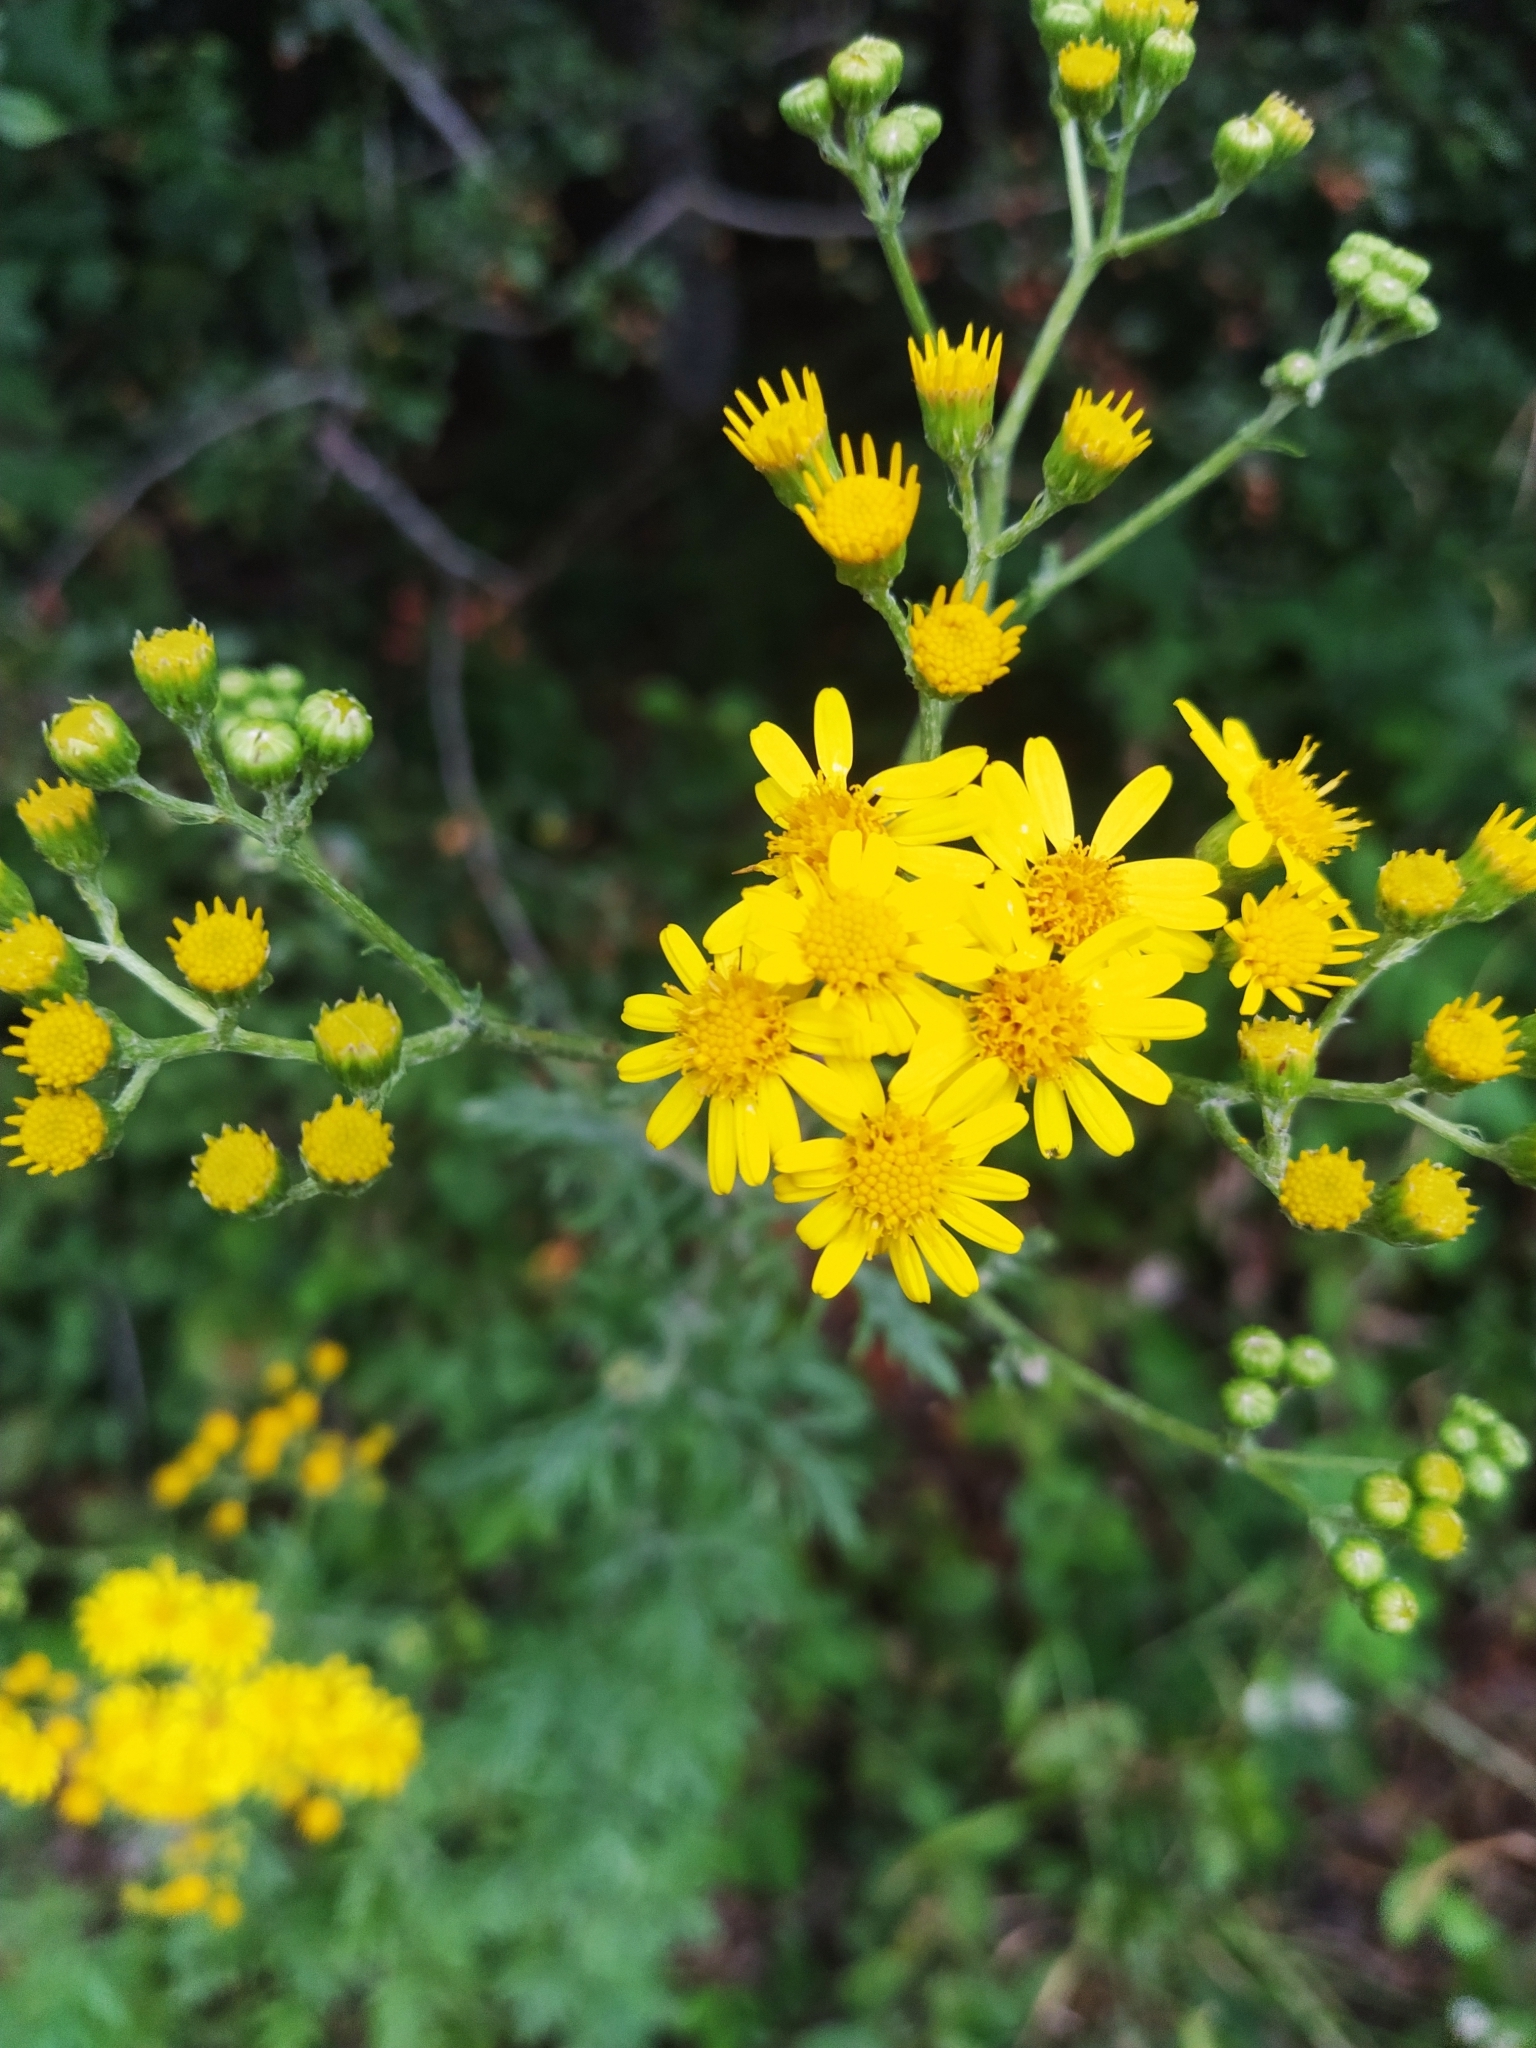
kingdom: Plantae
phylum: Tracheophyta
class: Magnoliopsida
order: Asterales
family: Asteraceae
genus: Jacobaea
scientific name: Jacobaea vulgaris
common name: Stinking willie
